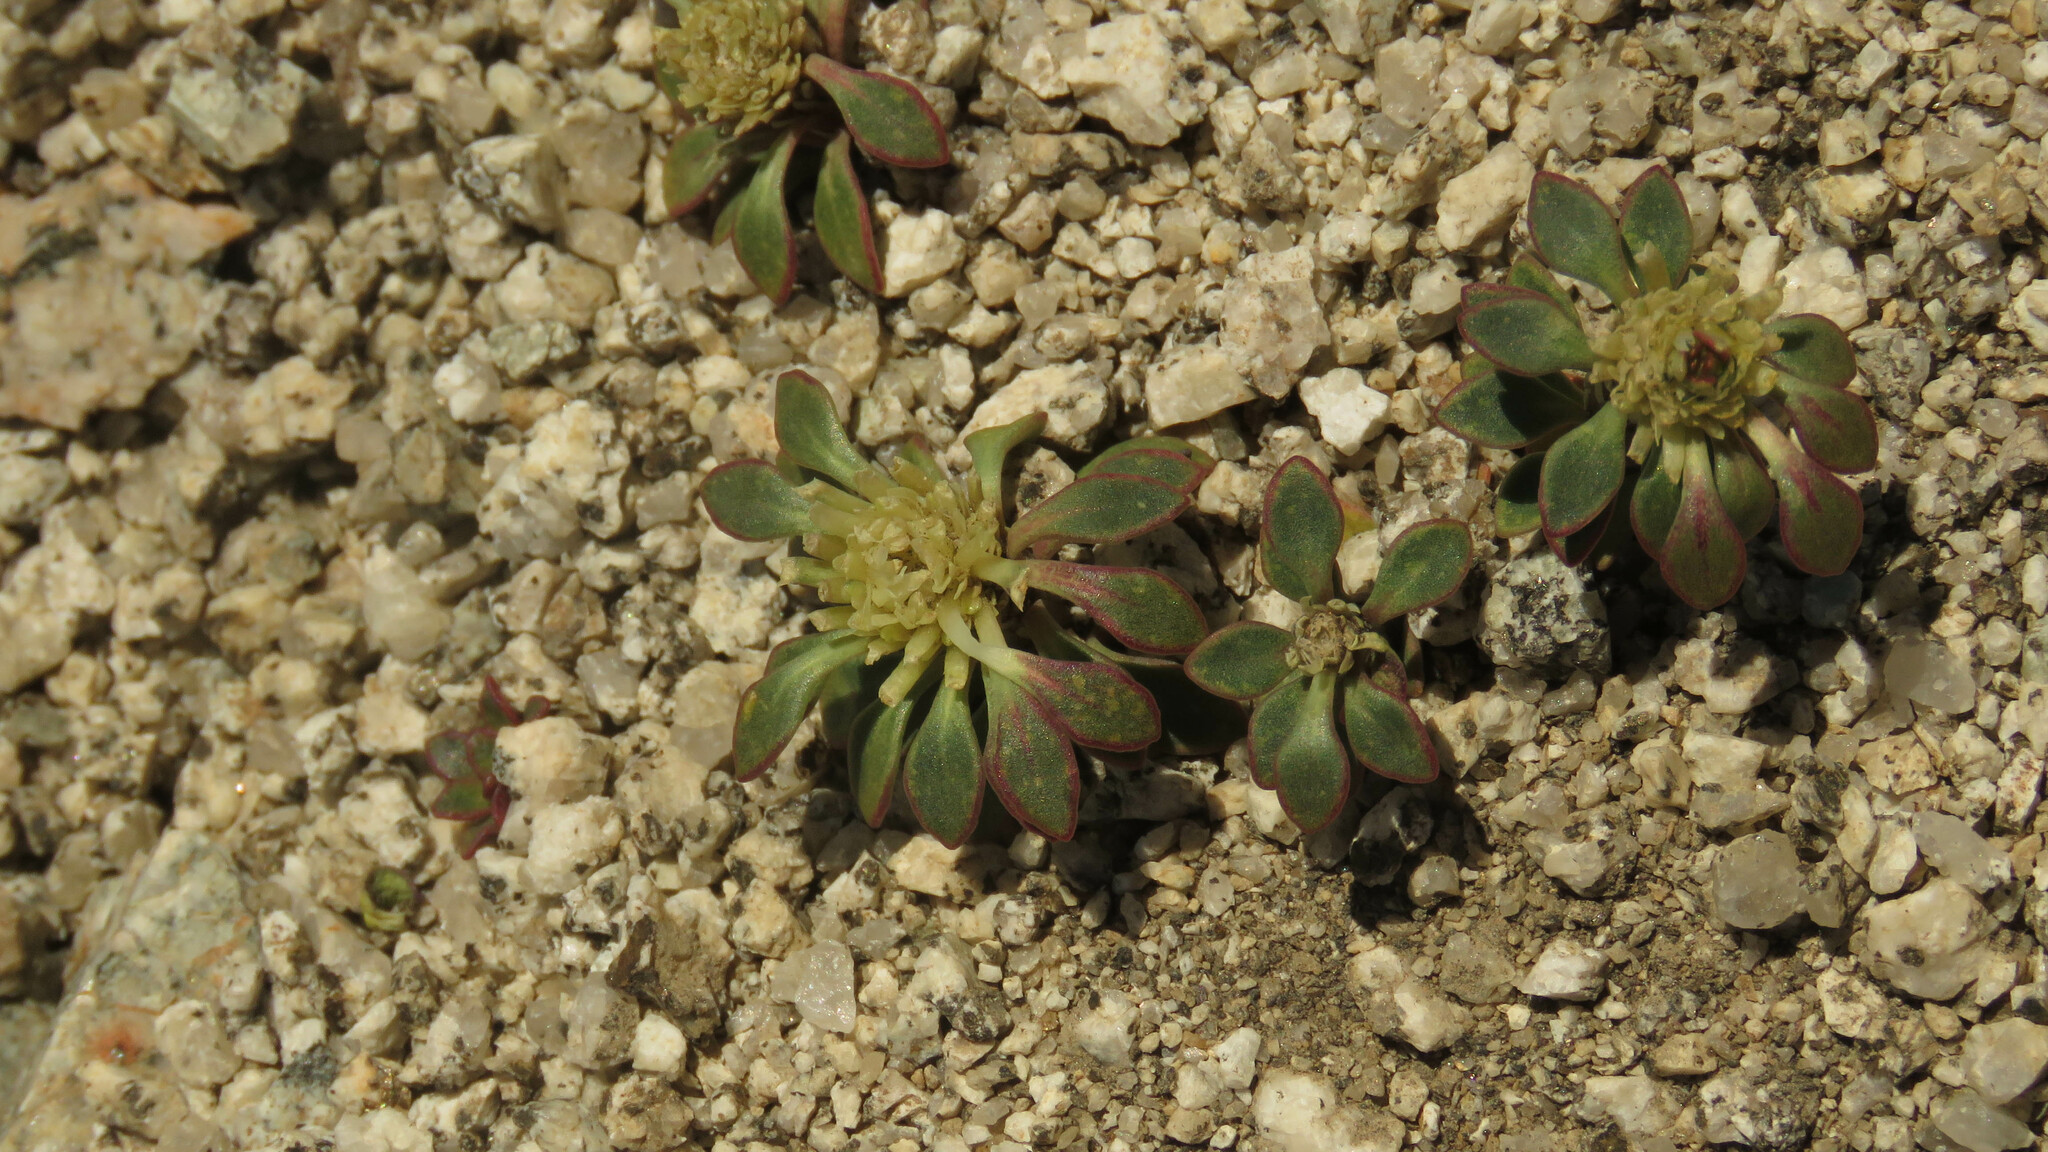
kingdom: Plantae
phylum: Tracheophyta
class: Magnoliopsida
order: Malpighiales
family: Violaceae
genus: Viola
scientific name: Viola sacculus
